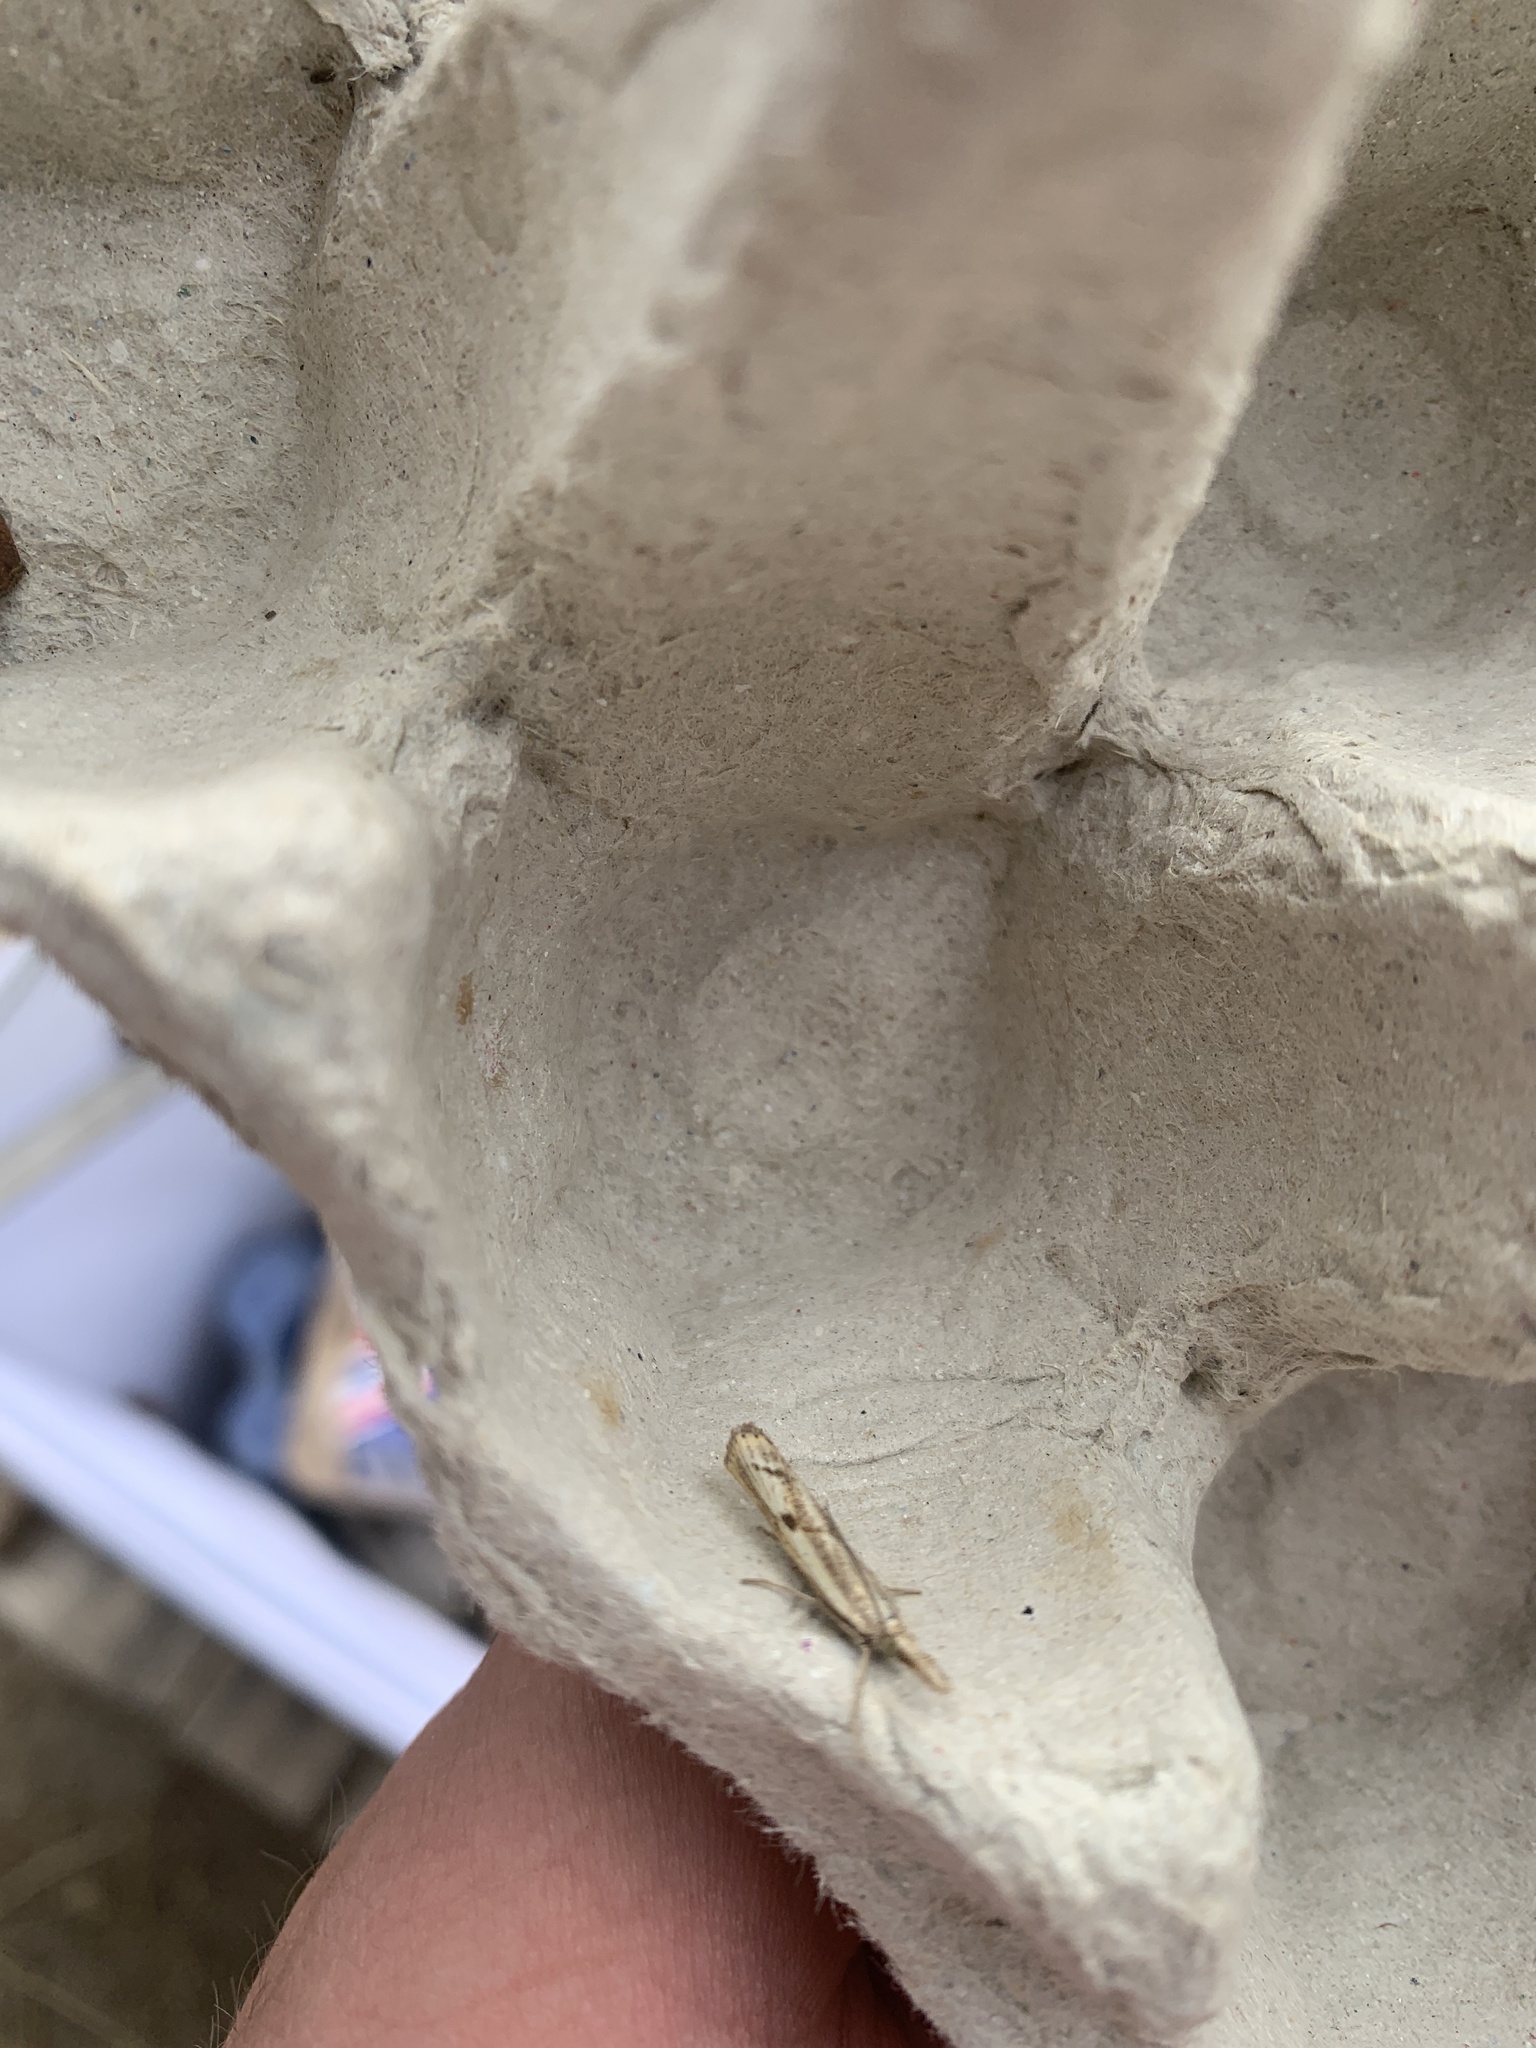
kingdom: Animalia
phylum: Arthropoda
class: Insecta
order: Lepidoptera
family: Crambidae
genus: Agriphila
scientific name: Agriphila geniculea
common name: Elbow-stripe grass-veneer
